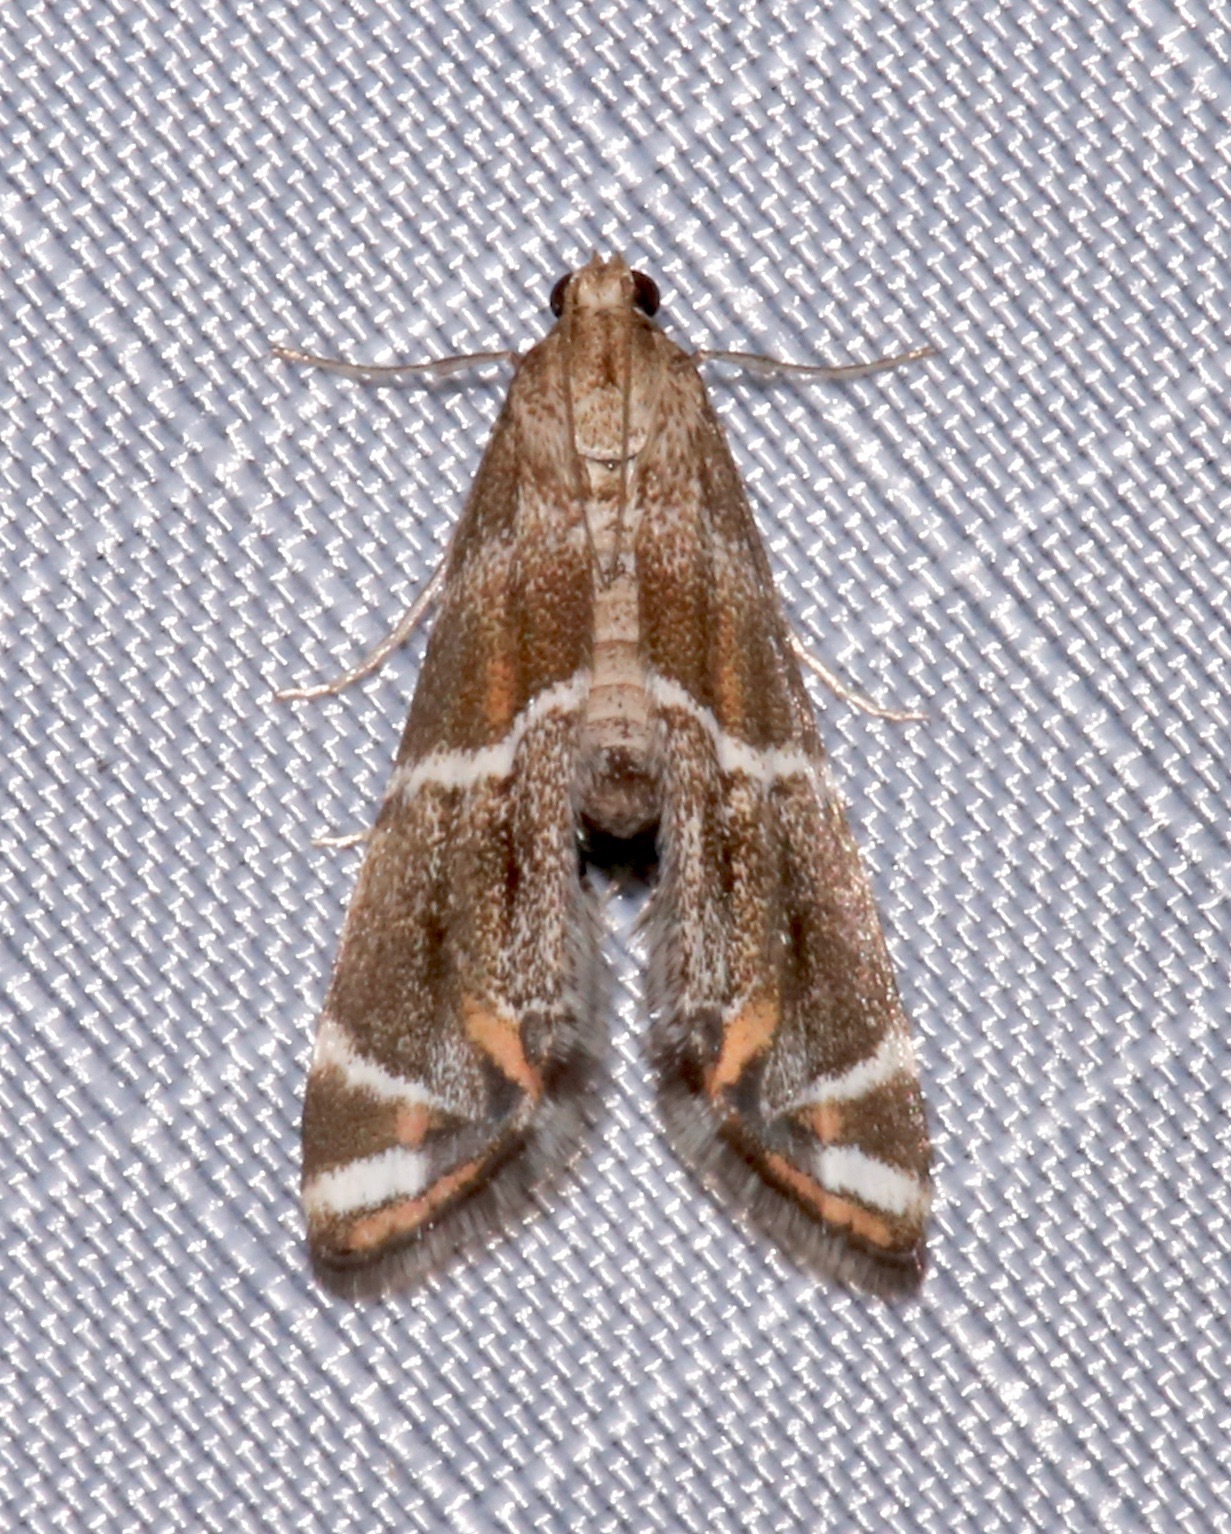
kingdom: Animalia
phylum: Arthropoda
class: Insecta
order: Lepidoptera
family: Crambidae
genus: Petrophila
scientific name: Petrophila jaliscalis
